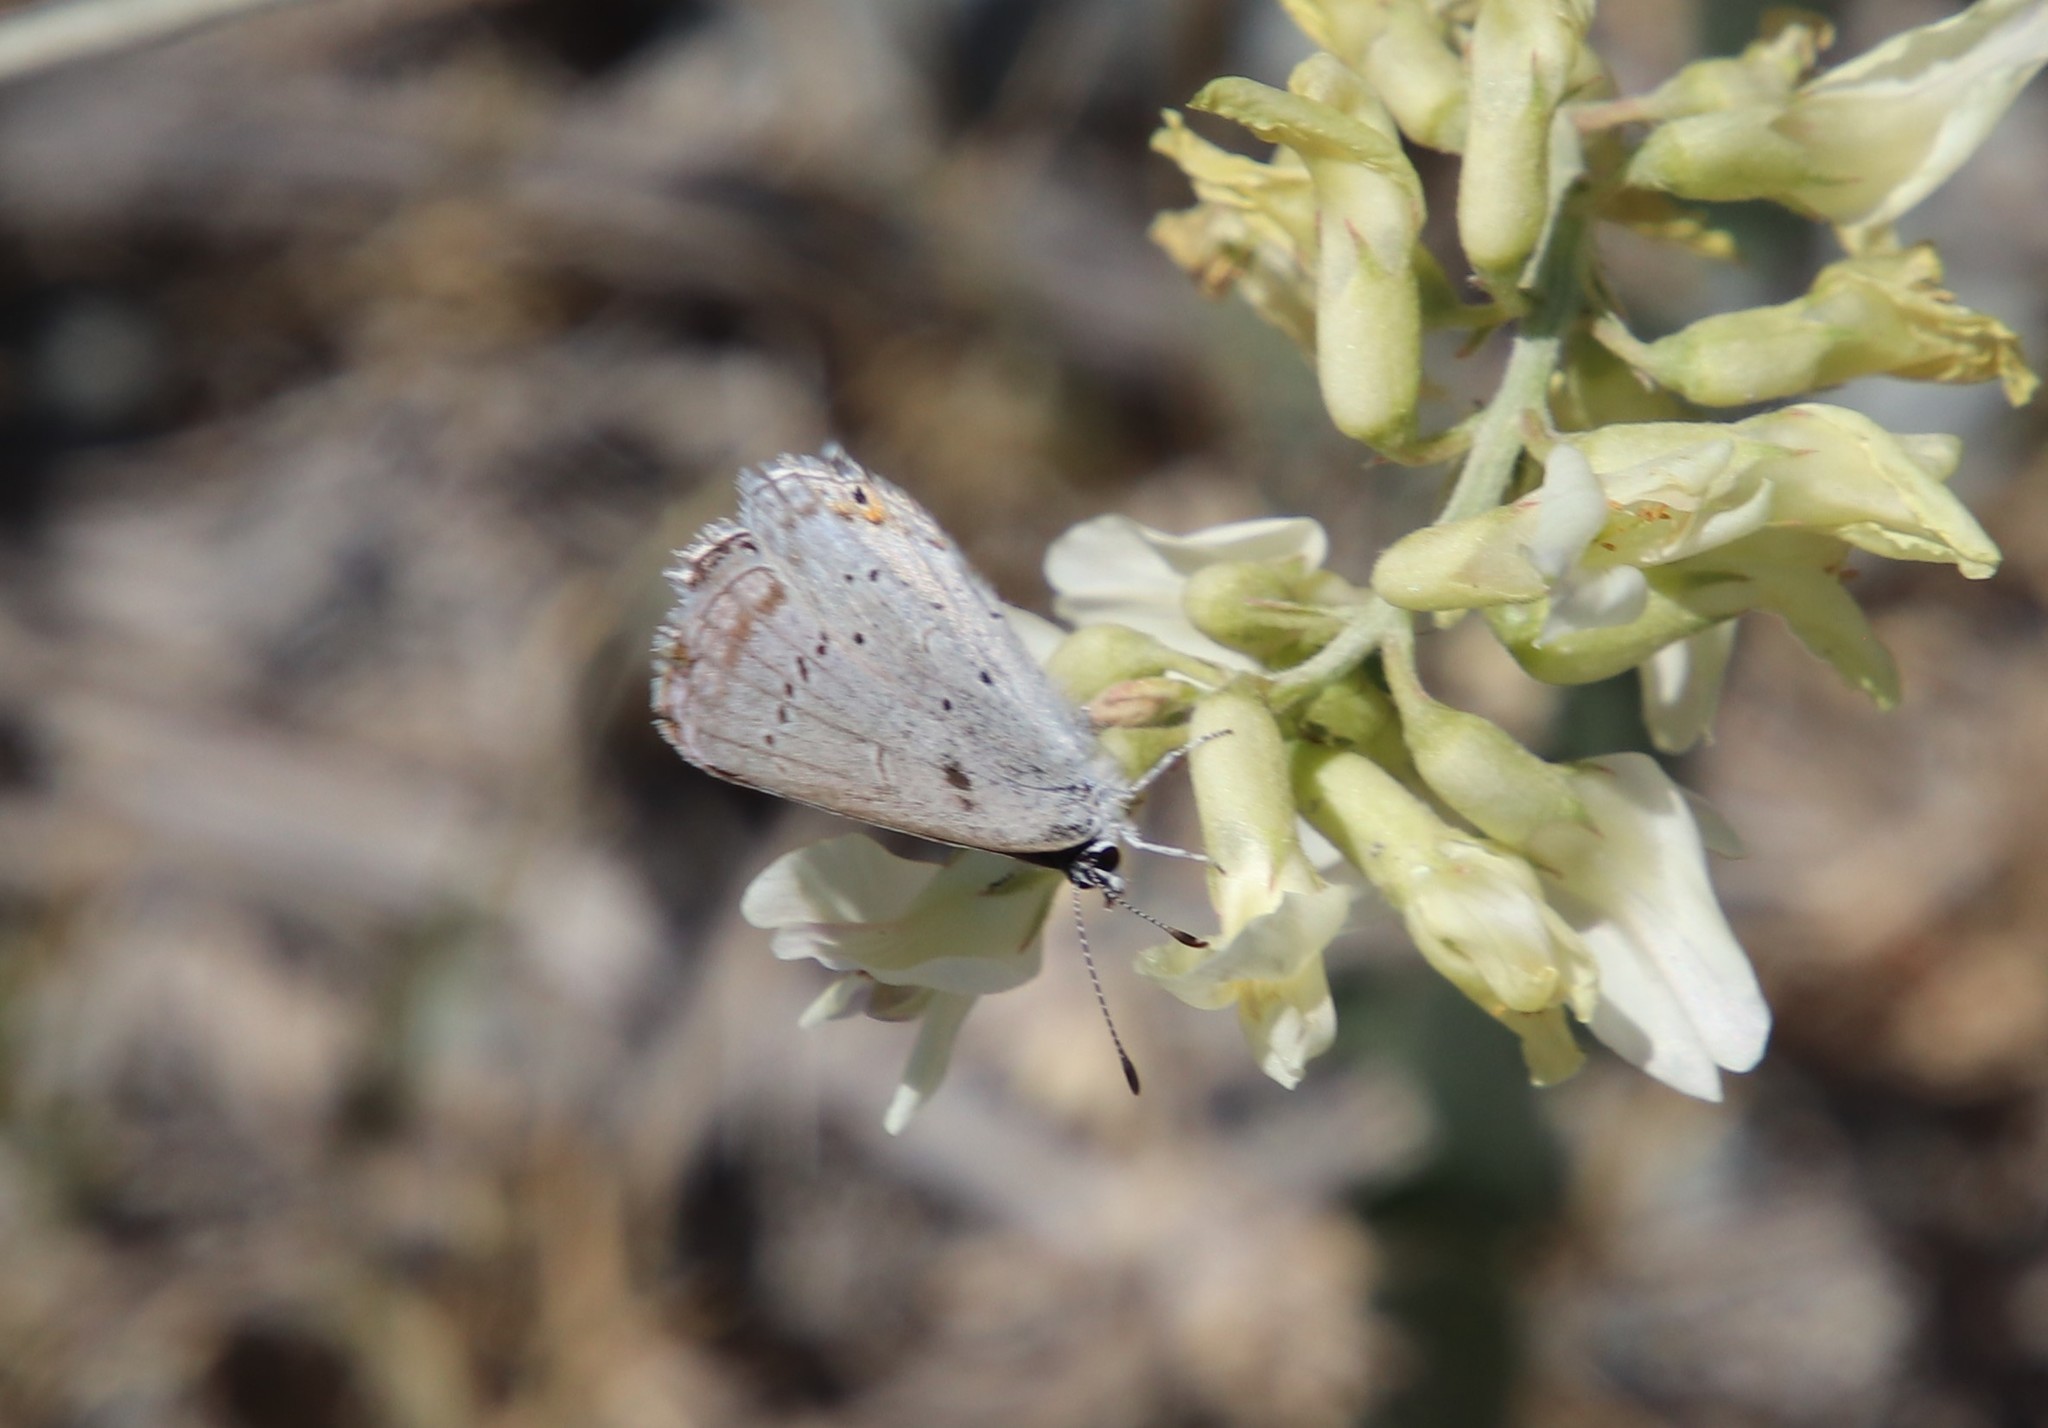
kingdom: Animalia
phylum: Arthropoda
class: Insecta
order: Lepidoptera
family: Lycaenidae
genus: Elkalyce
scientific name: Elkalyce amyntula
